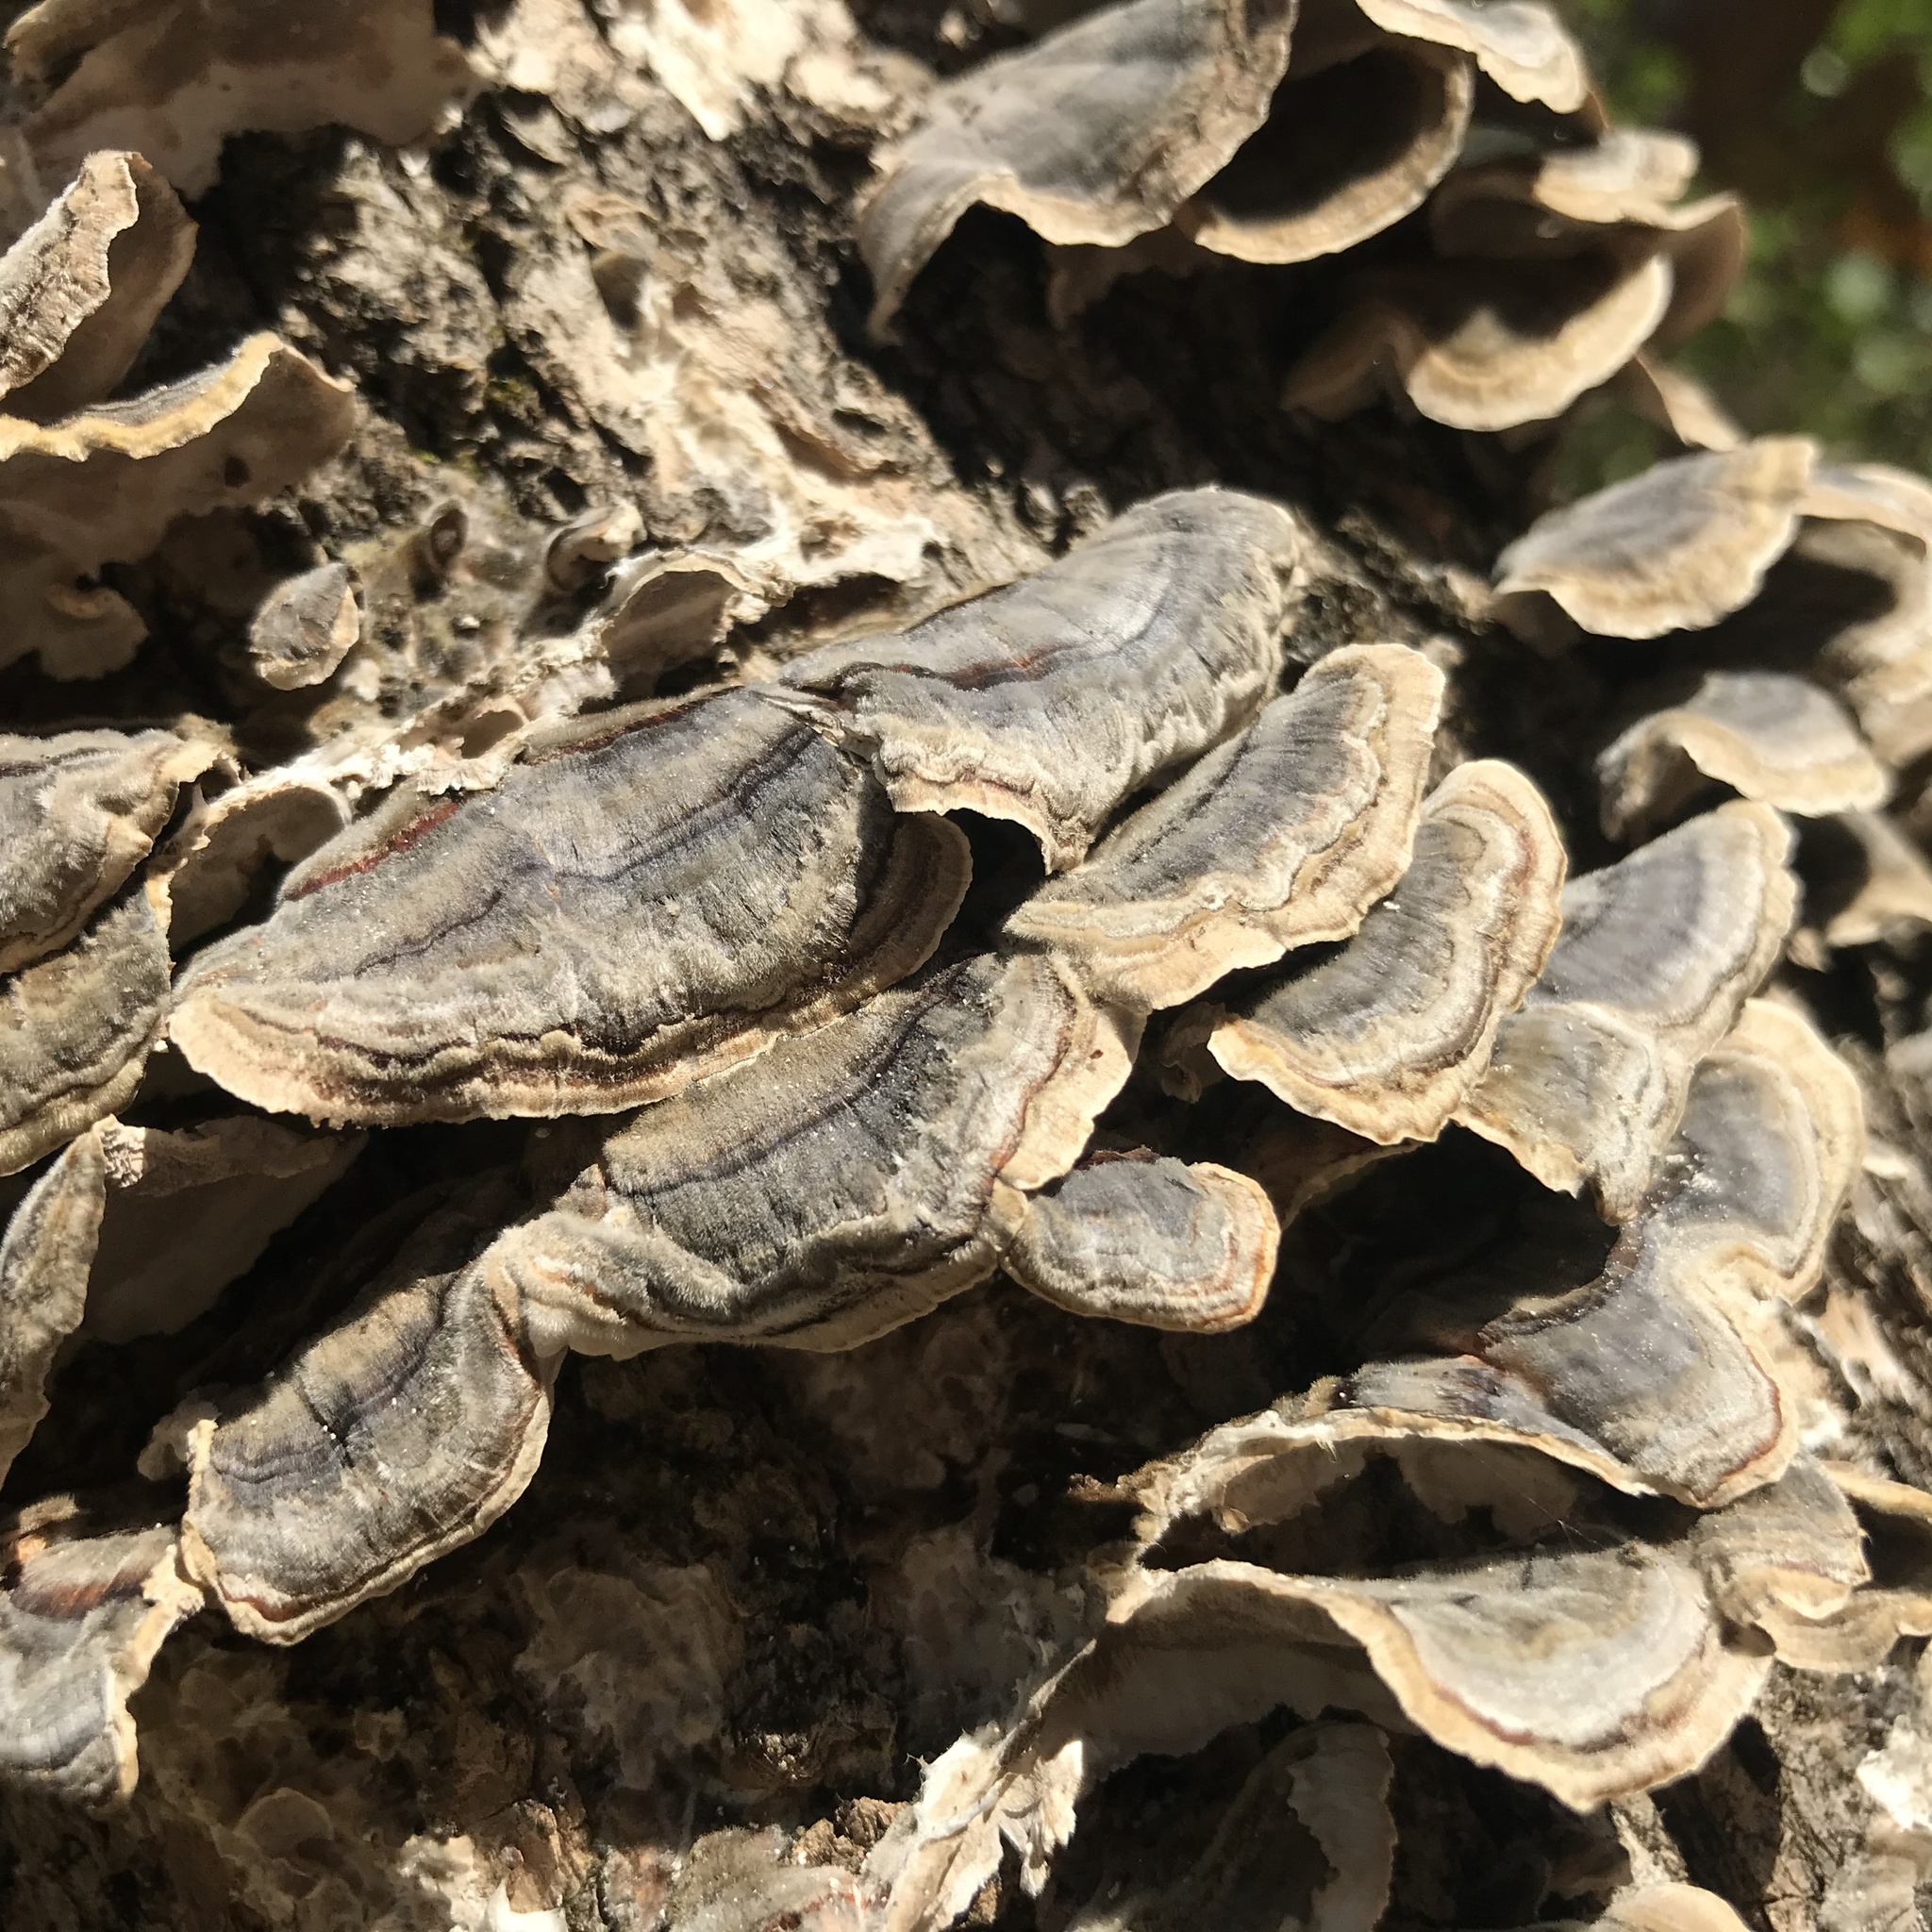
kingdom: Fungi
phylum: Basidiomycota
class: Agaricomycetes
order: Polyporales
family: Polyporaceae
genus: Trametes
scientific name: Trametes versicolor
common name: Turkeytail
